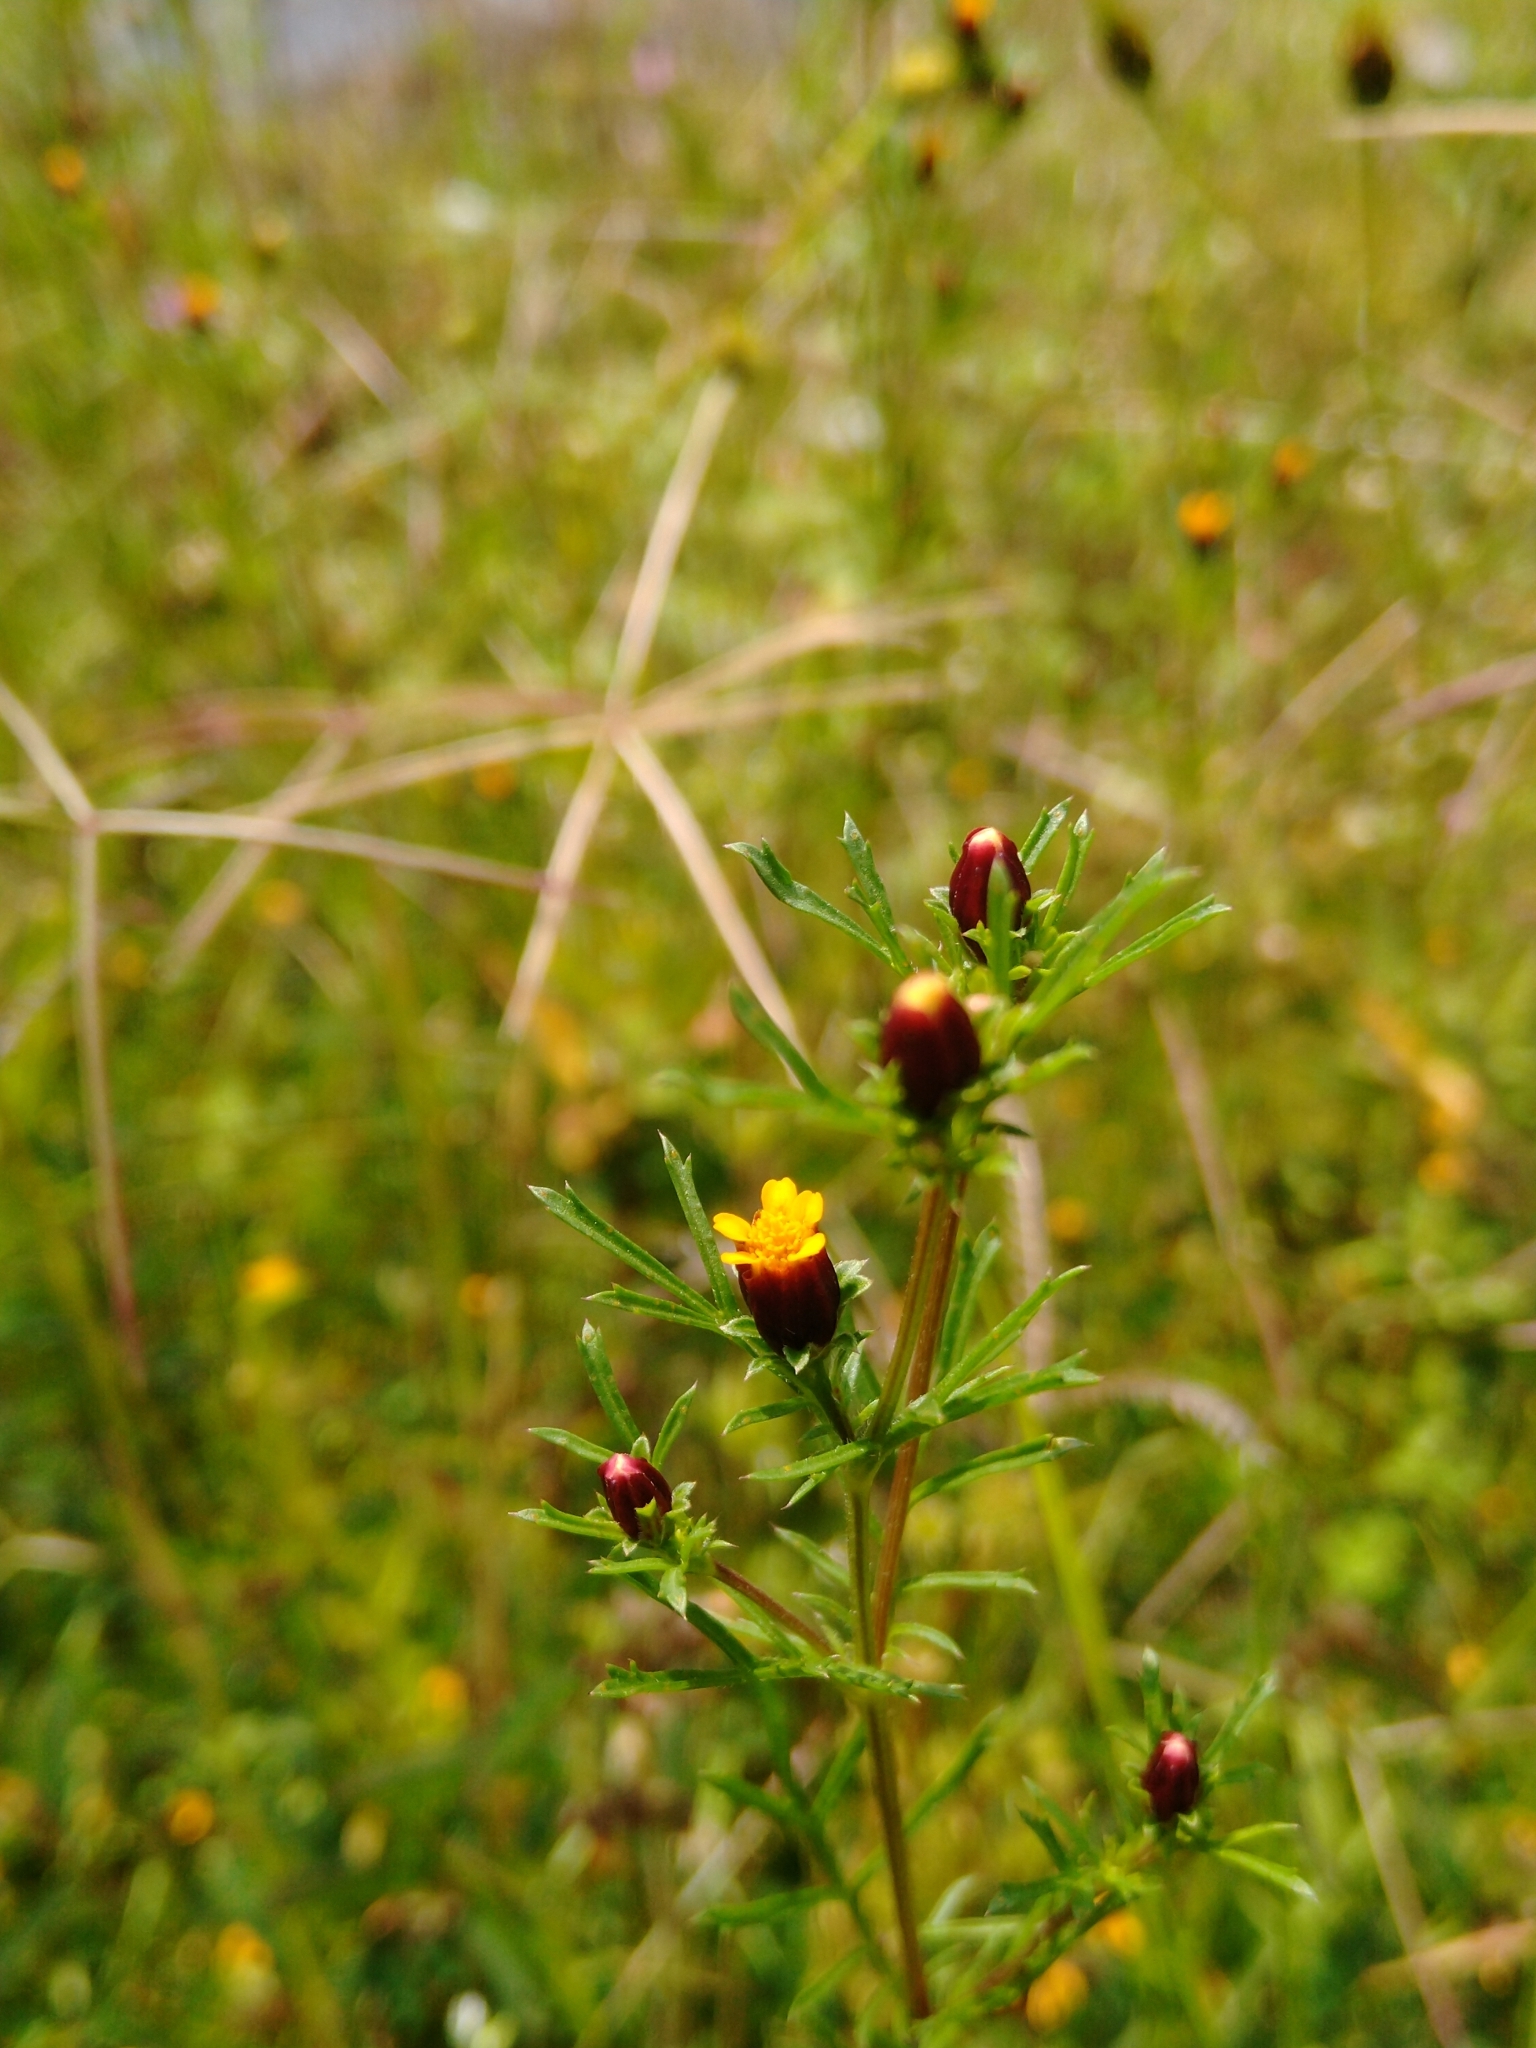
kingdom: Plantae
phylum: Tracheophyta
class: Magnoliopsida
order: Asterales
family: Asteraceae
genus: Dyssodia
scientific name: Dyssodia papposa
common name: Dogweed
